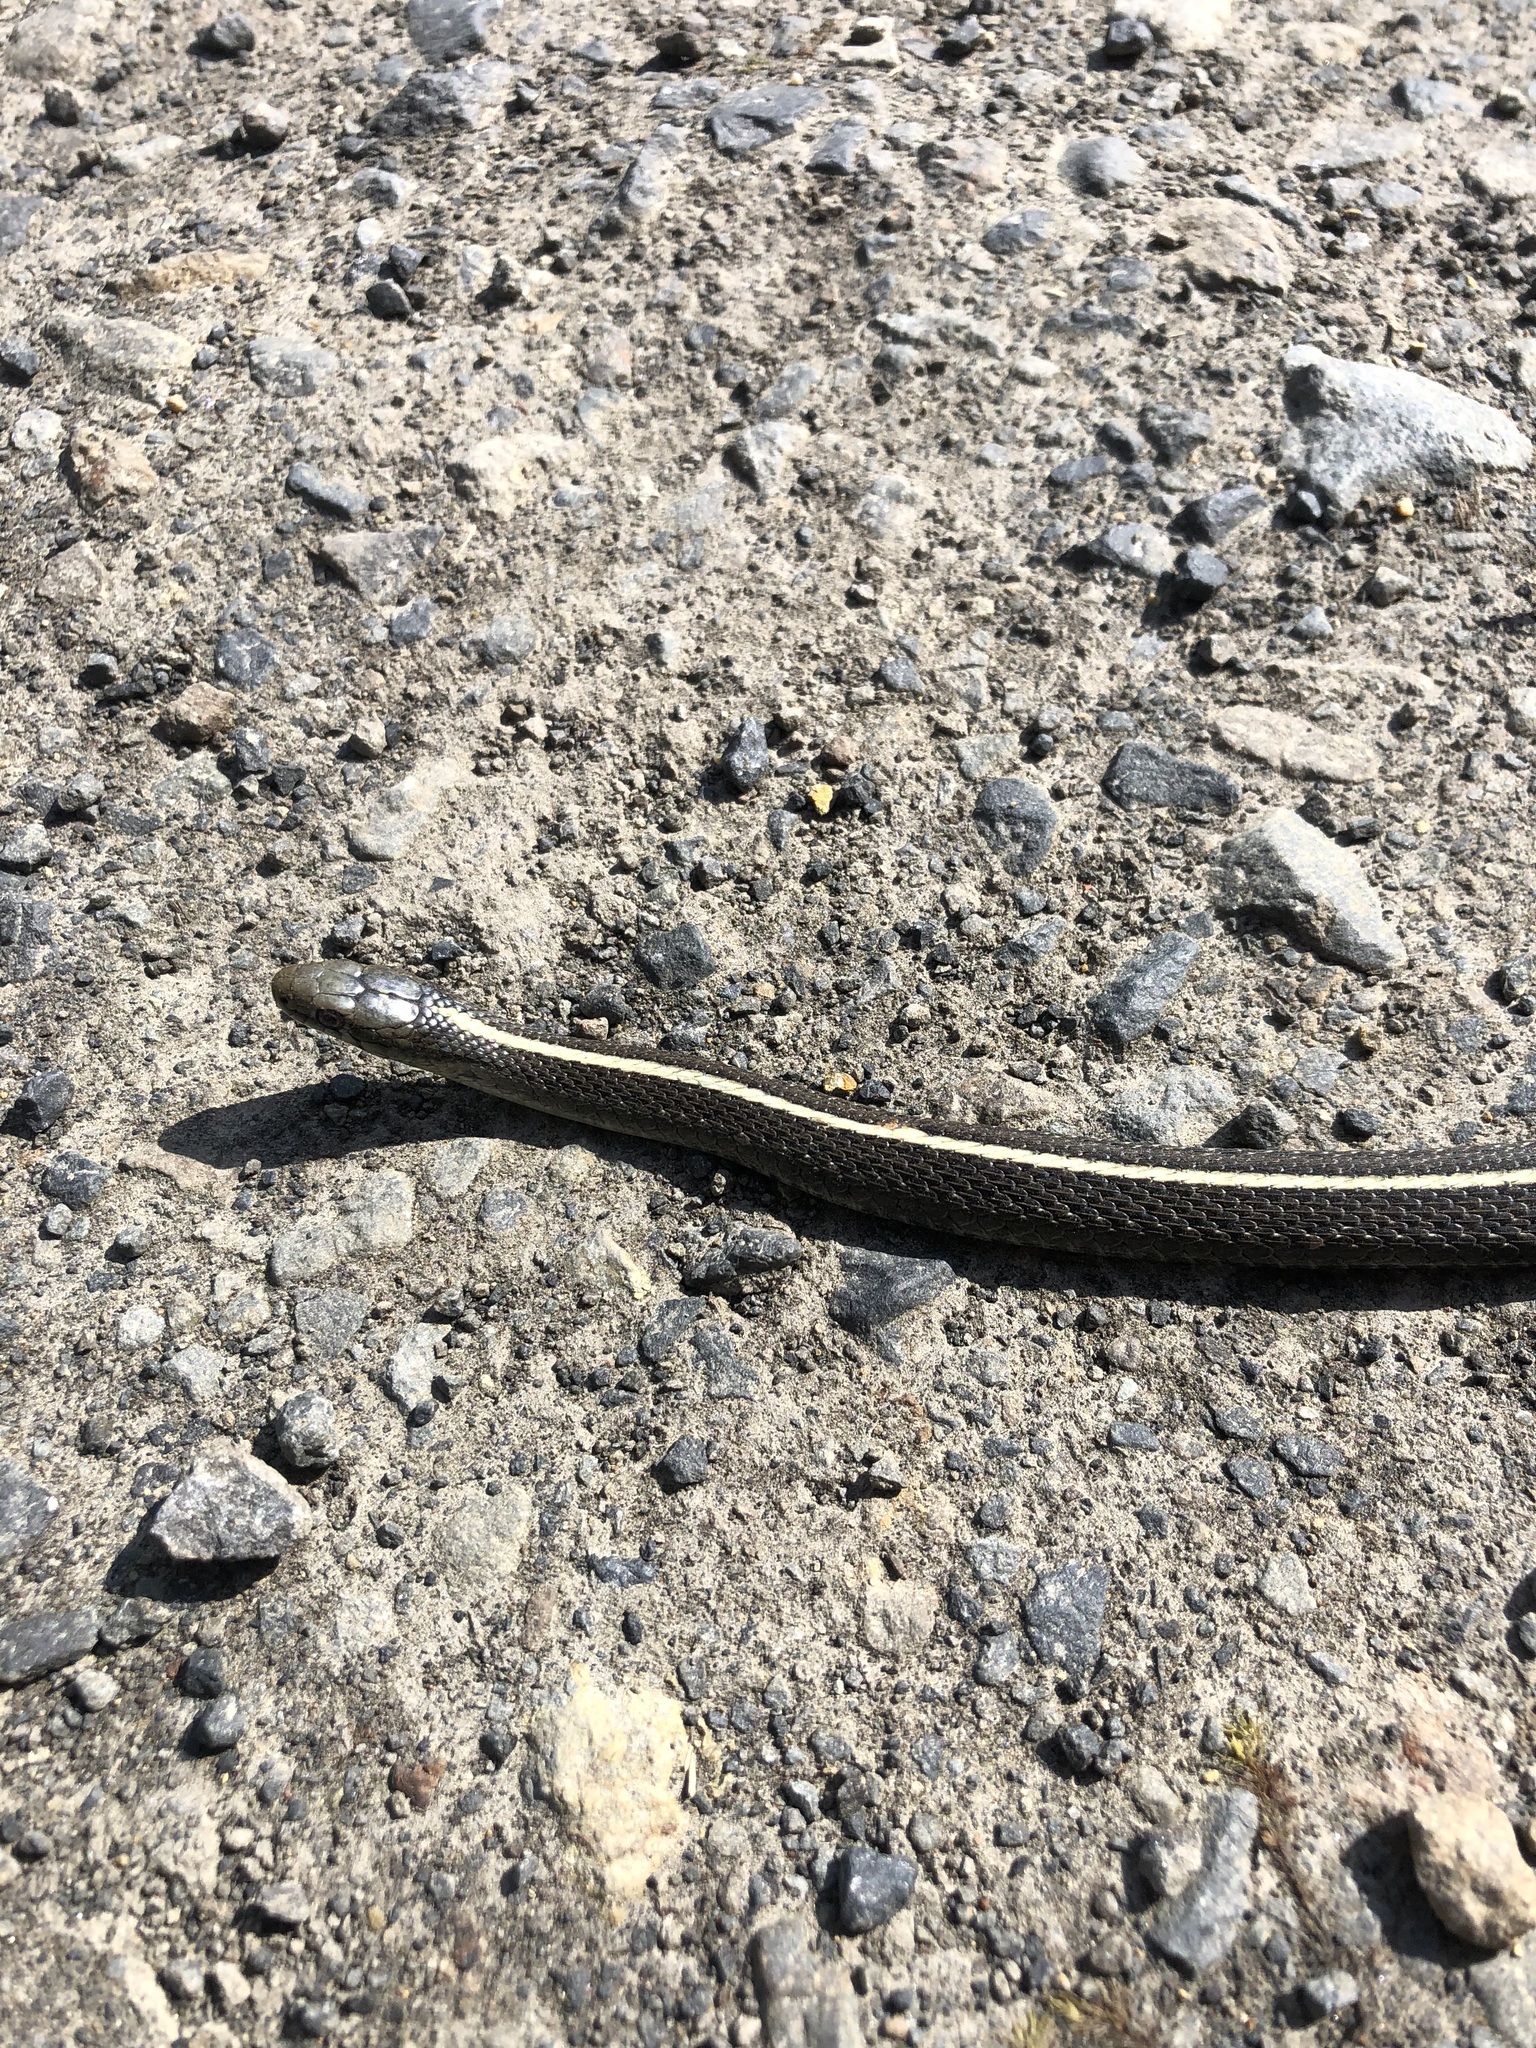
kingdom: Animalia
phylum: Chordata
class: Squamata
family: Colubridae
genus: Thamnophis
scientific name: Thamnophis ordinoides
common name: Northwestern garter snake
